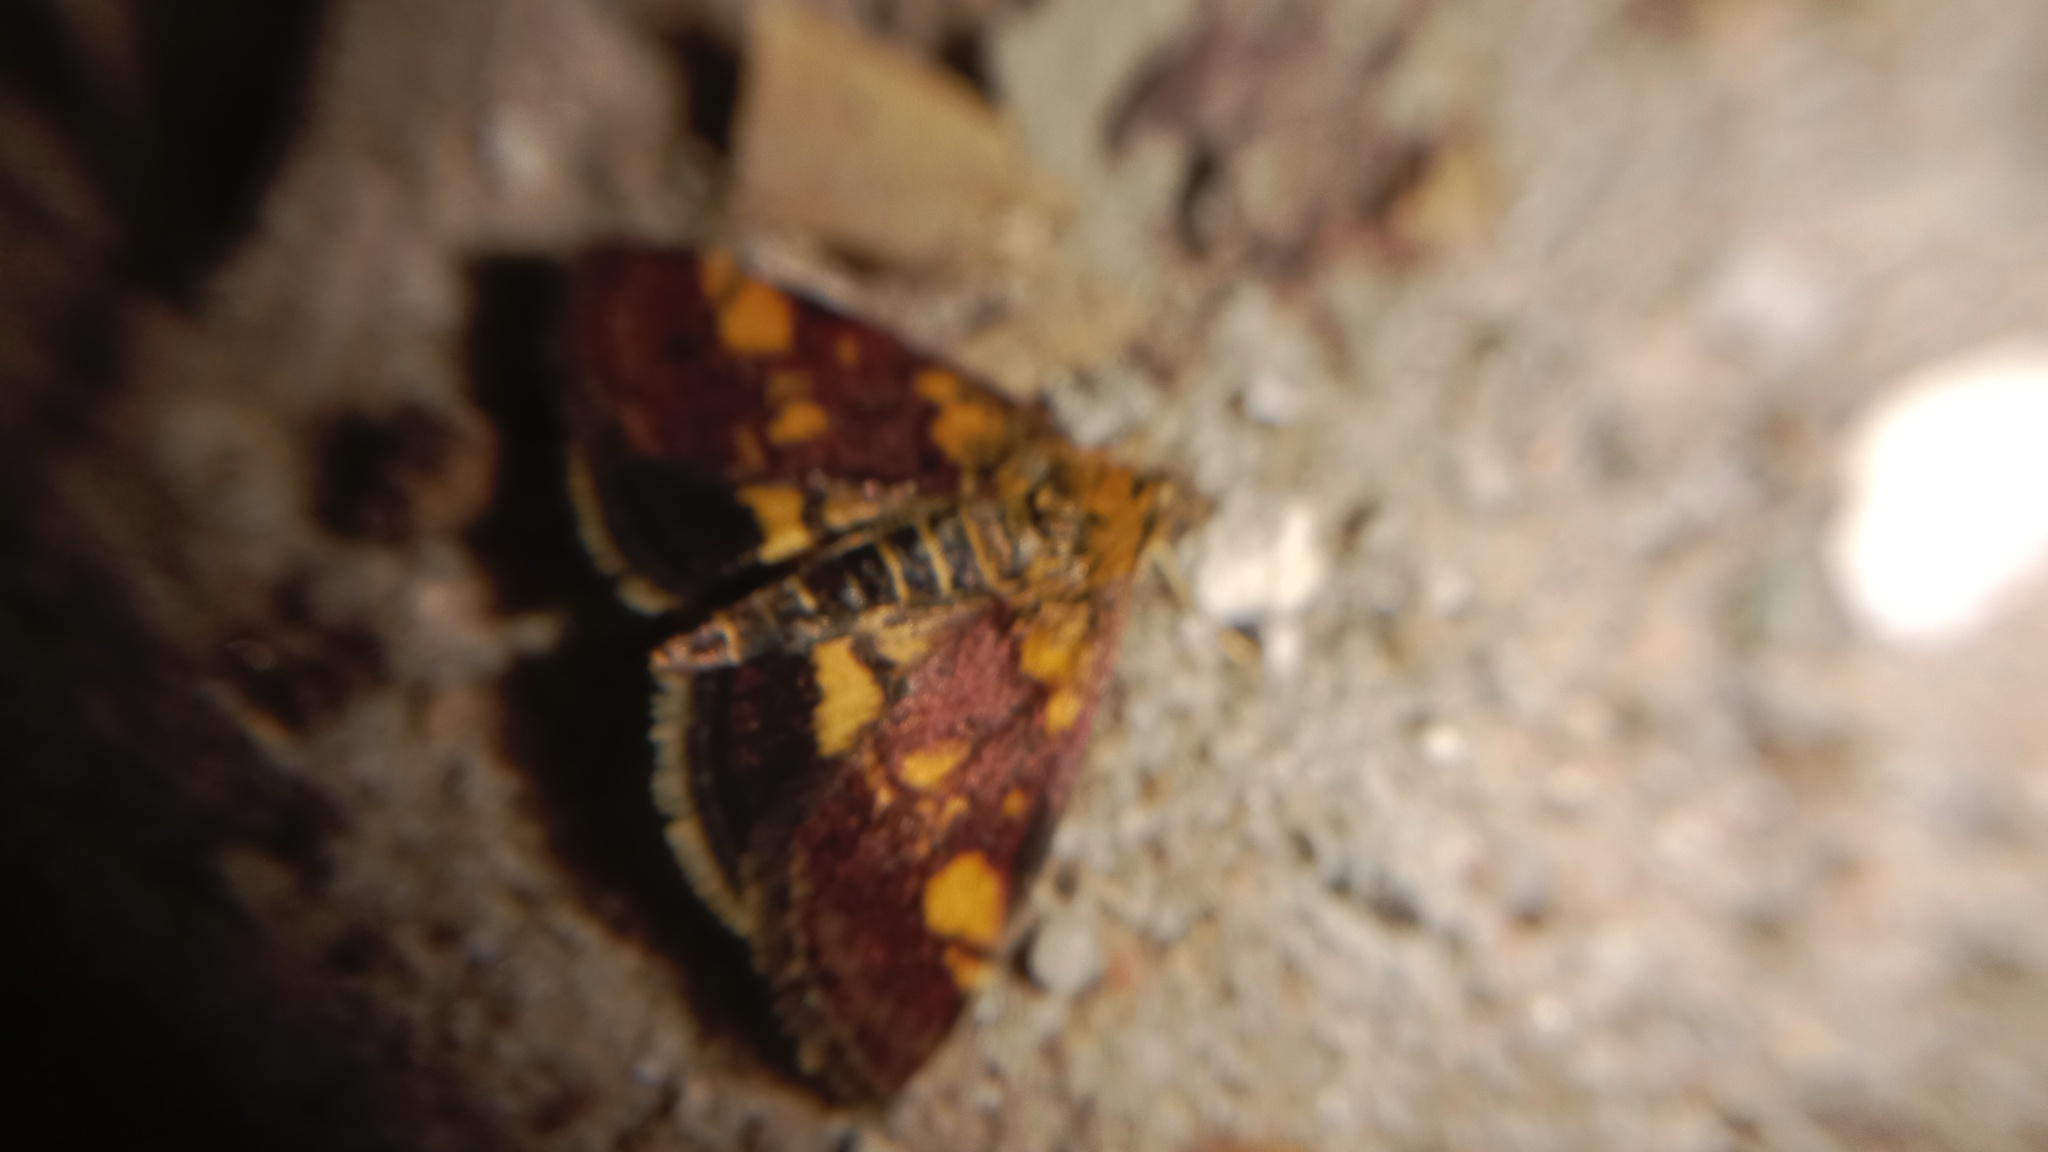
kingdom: Animalia
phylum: Arthropoda
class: Insecta
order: Lepidoptera
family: Crambidae
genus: Pyrausta
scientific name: Pyrausta aurata
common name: Small purple & gold
